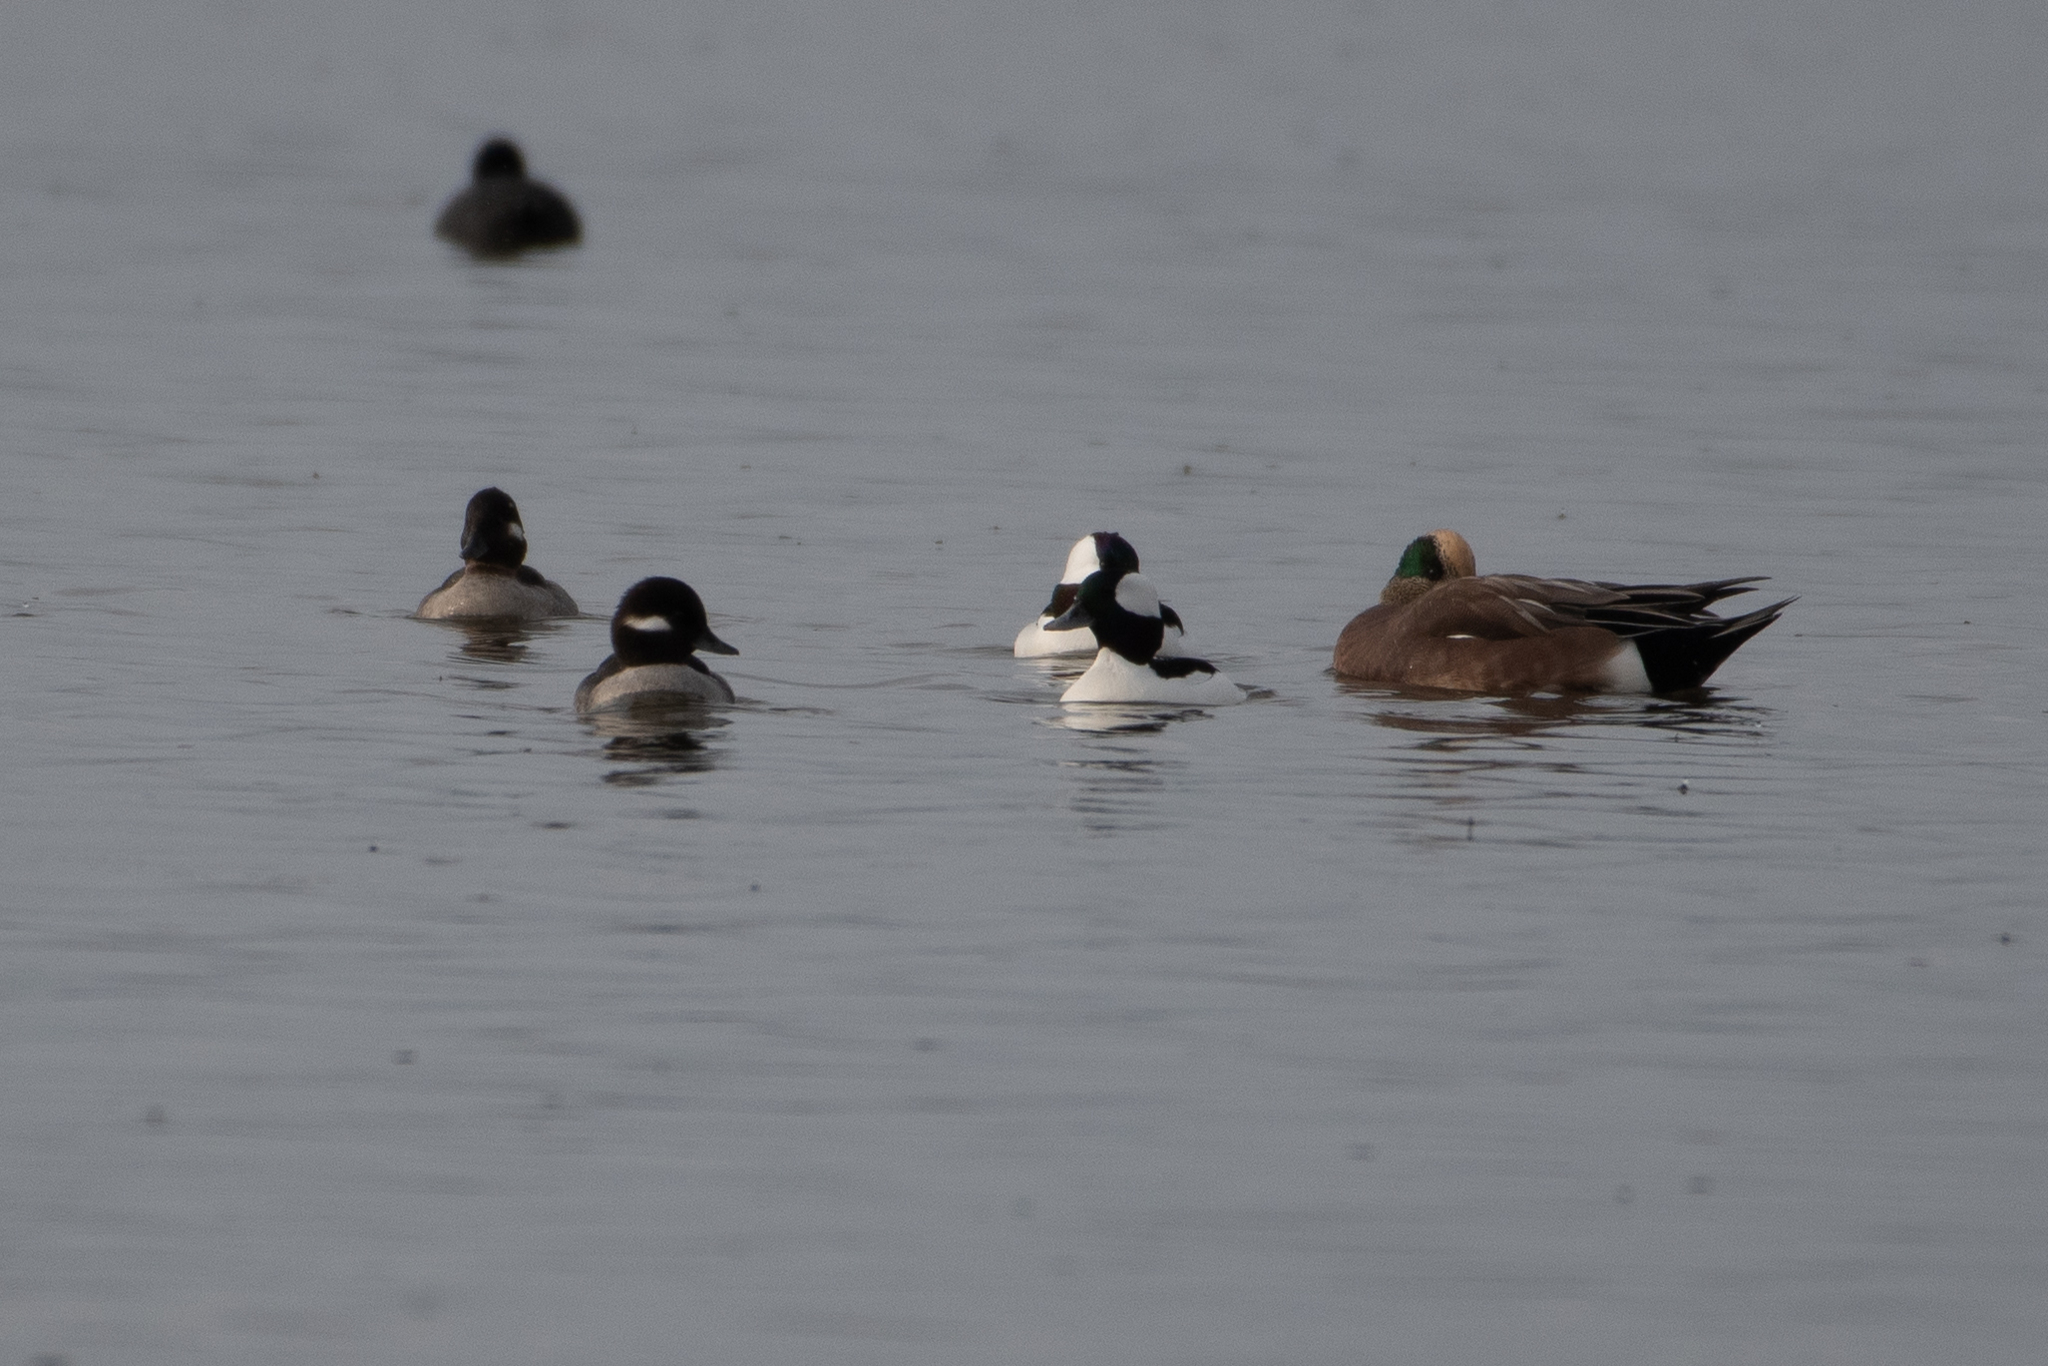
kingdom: Animalia
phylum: Chordata
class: Aves
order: Anseriformes
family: Anatidae
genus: Bucephala
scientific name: Bucephala albeola
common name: Bufflehead
